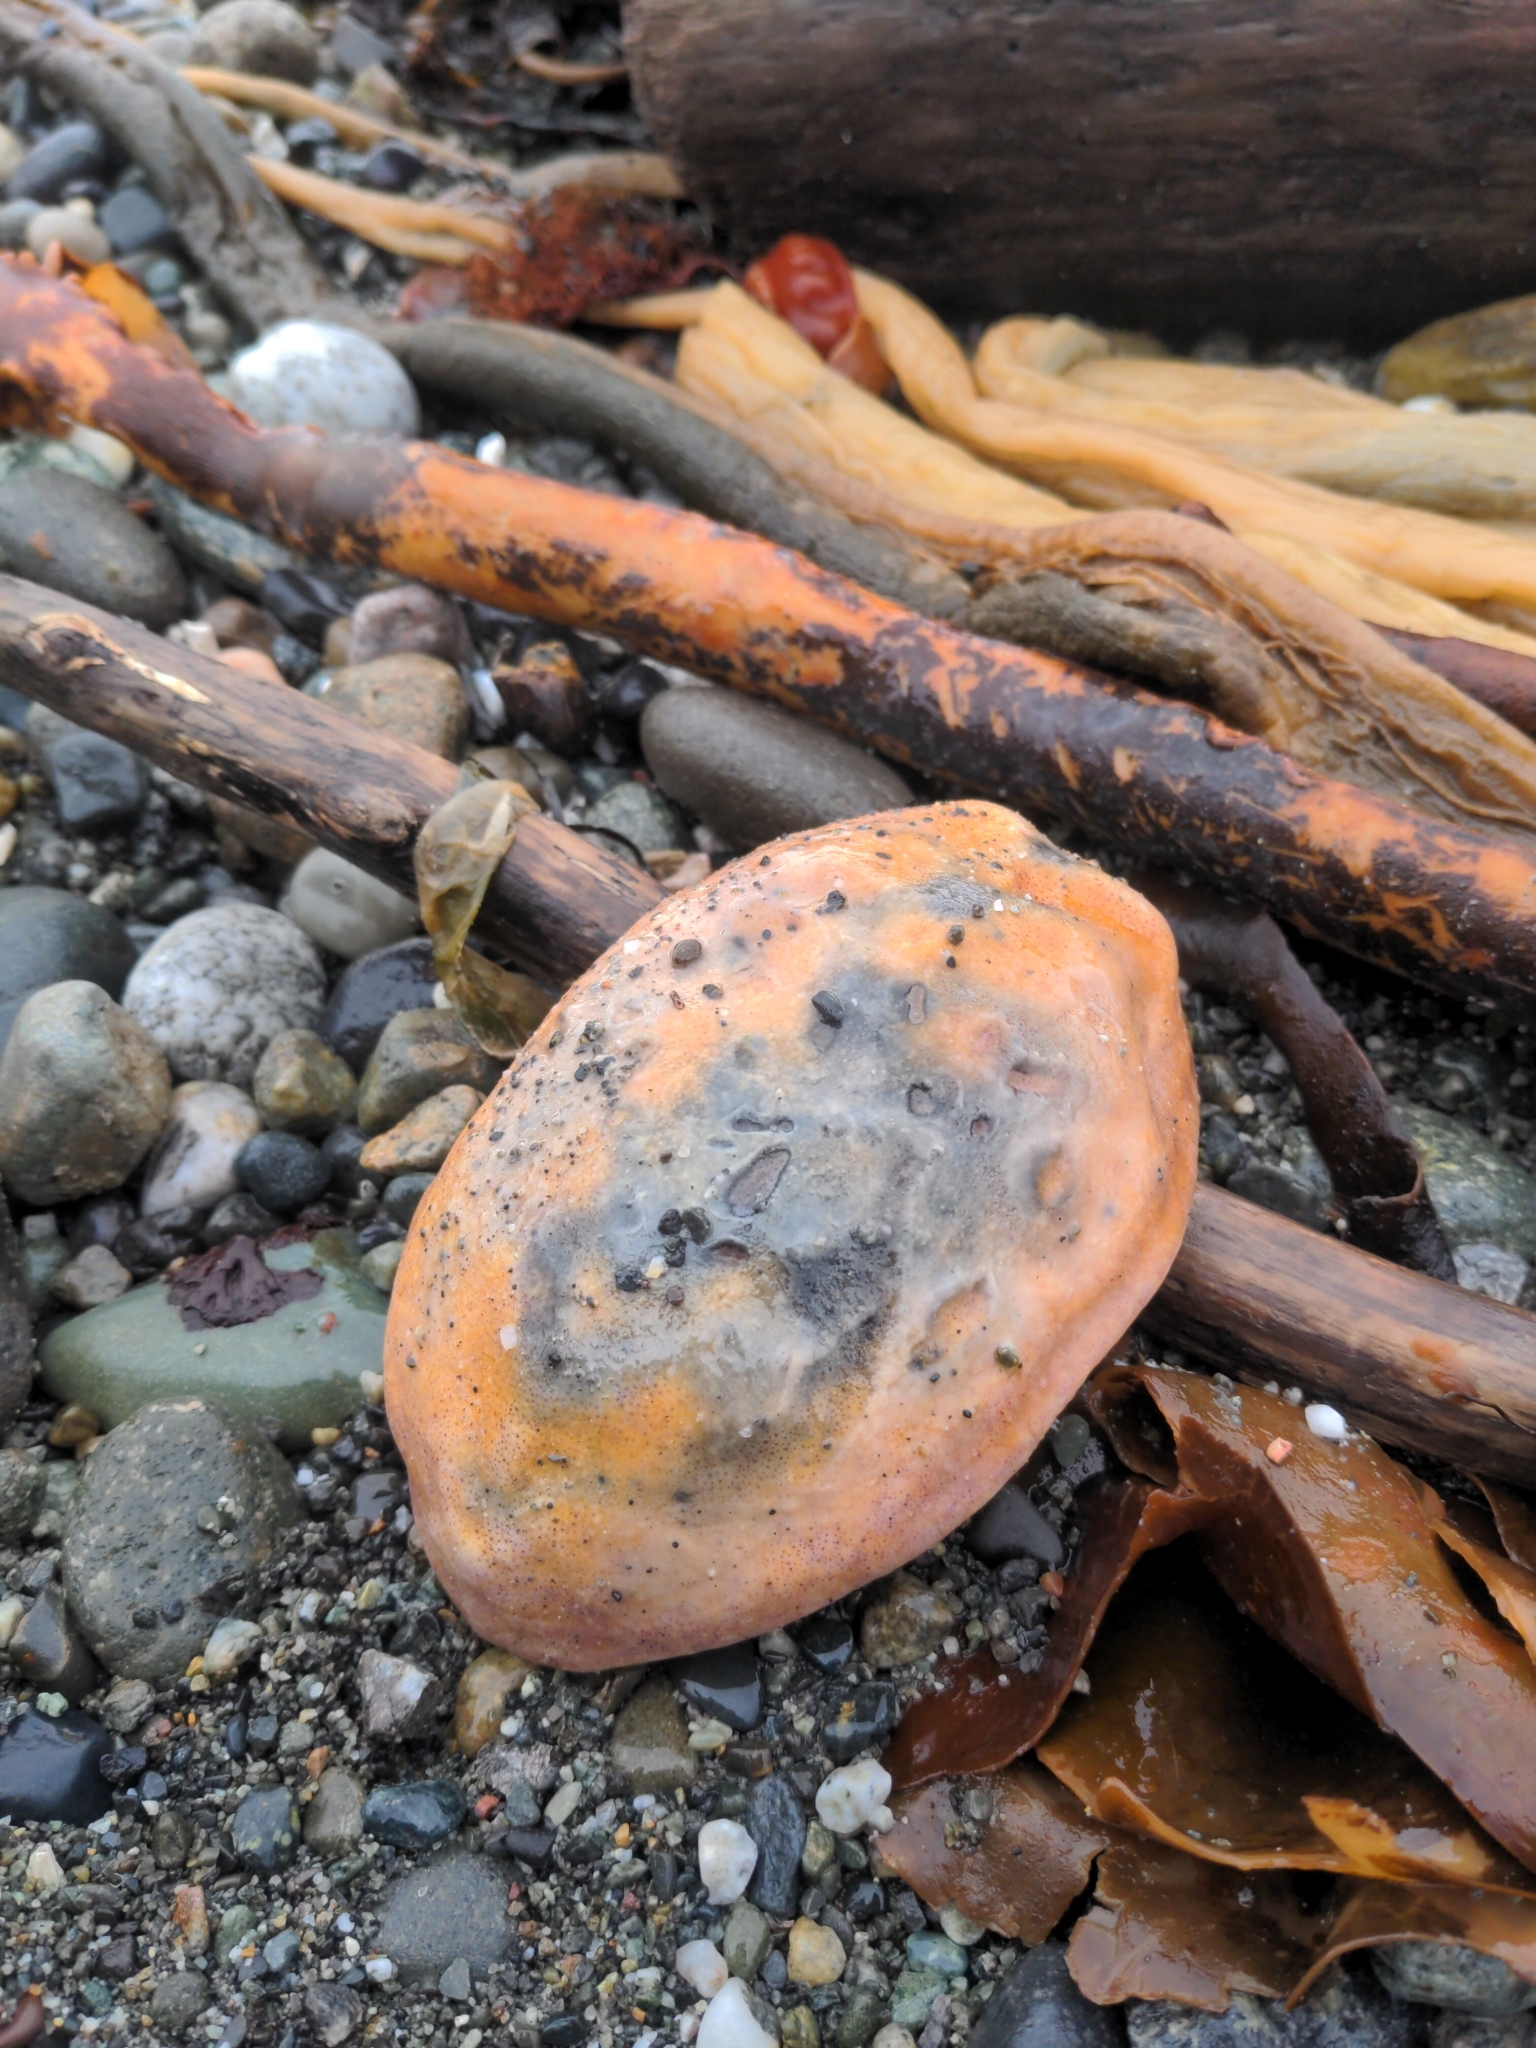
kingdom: Animalia
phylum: Mollusca
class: Polyplacophora
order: Chitonida
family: Acanthochitonidae
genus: Cryptochiton
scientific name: Cryptochiton stelleri
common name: Giant pacific chiton
